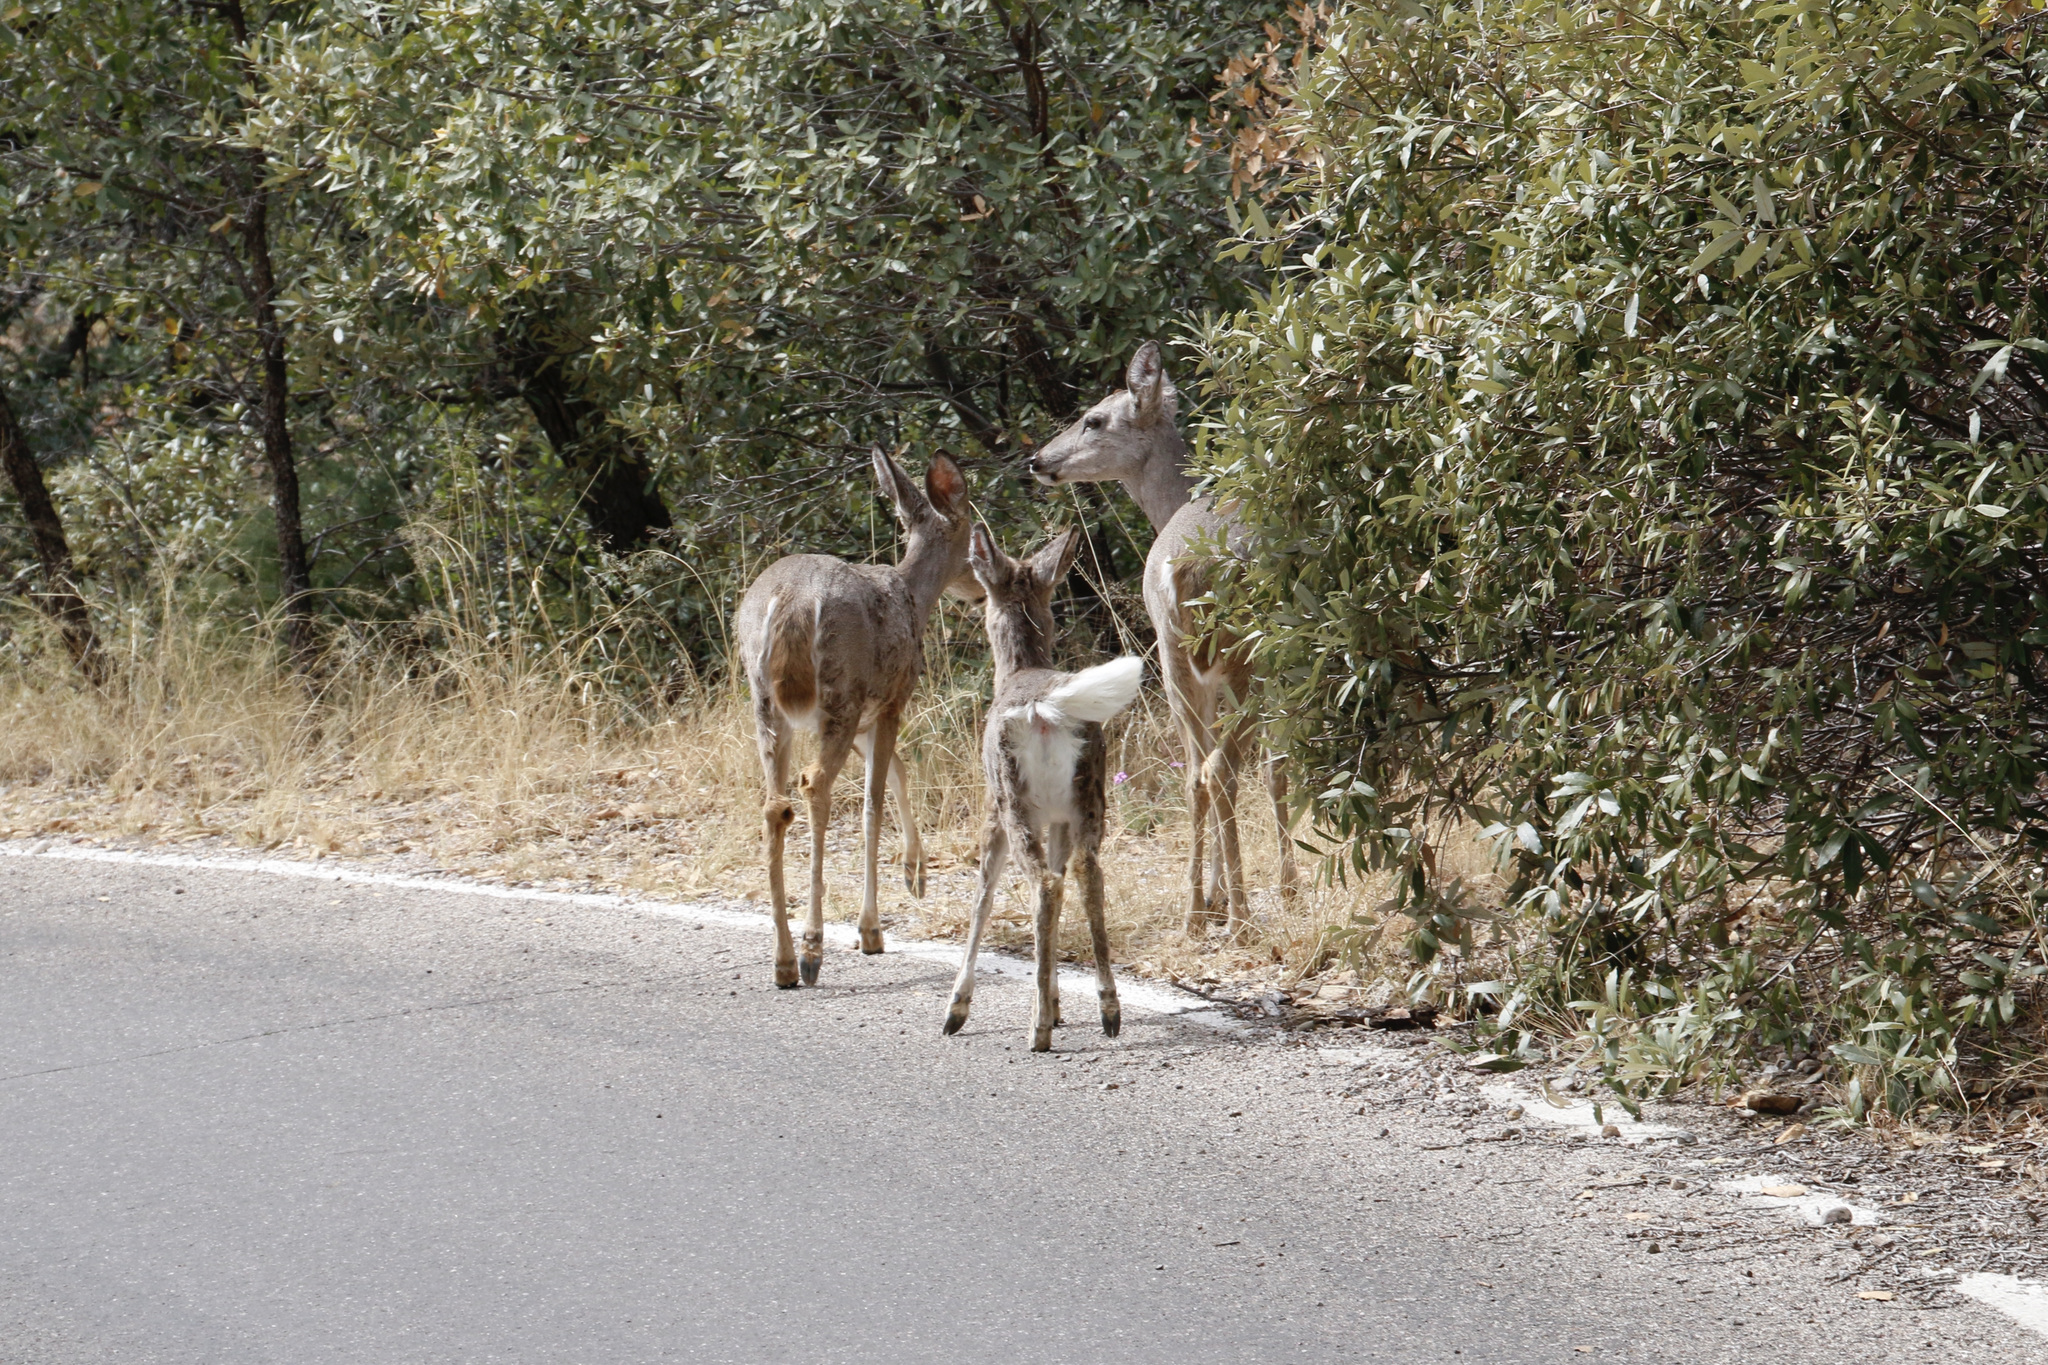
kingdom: Animalia
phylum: Chordata
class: Mammalia
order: Artiodactyla
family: Cervidae
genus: Odocoileus
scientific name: Odocoileus virginianus
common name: White-tailed deer
